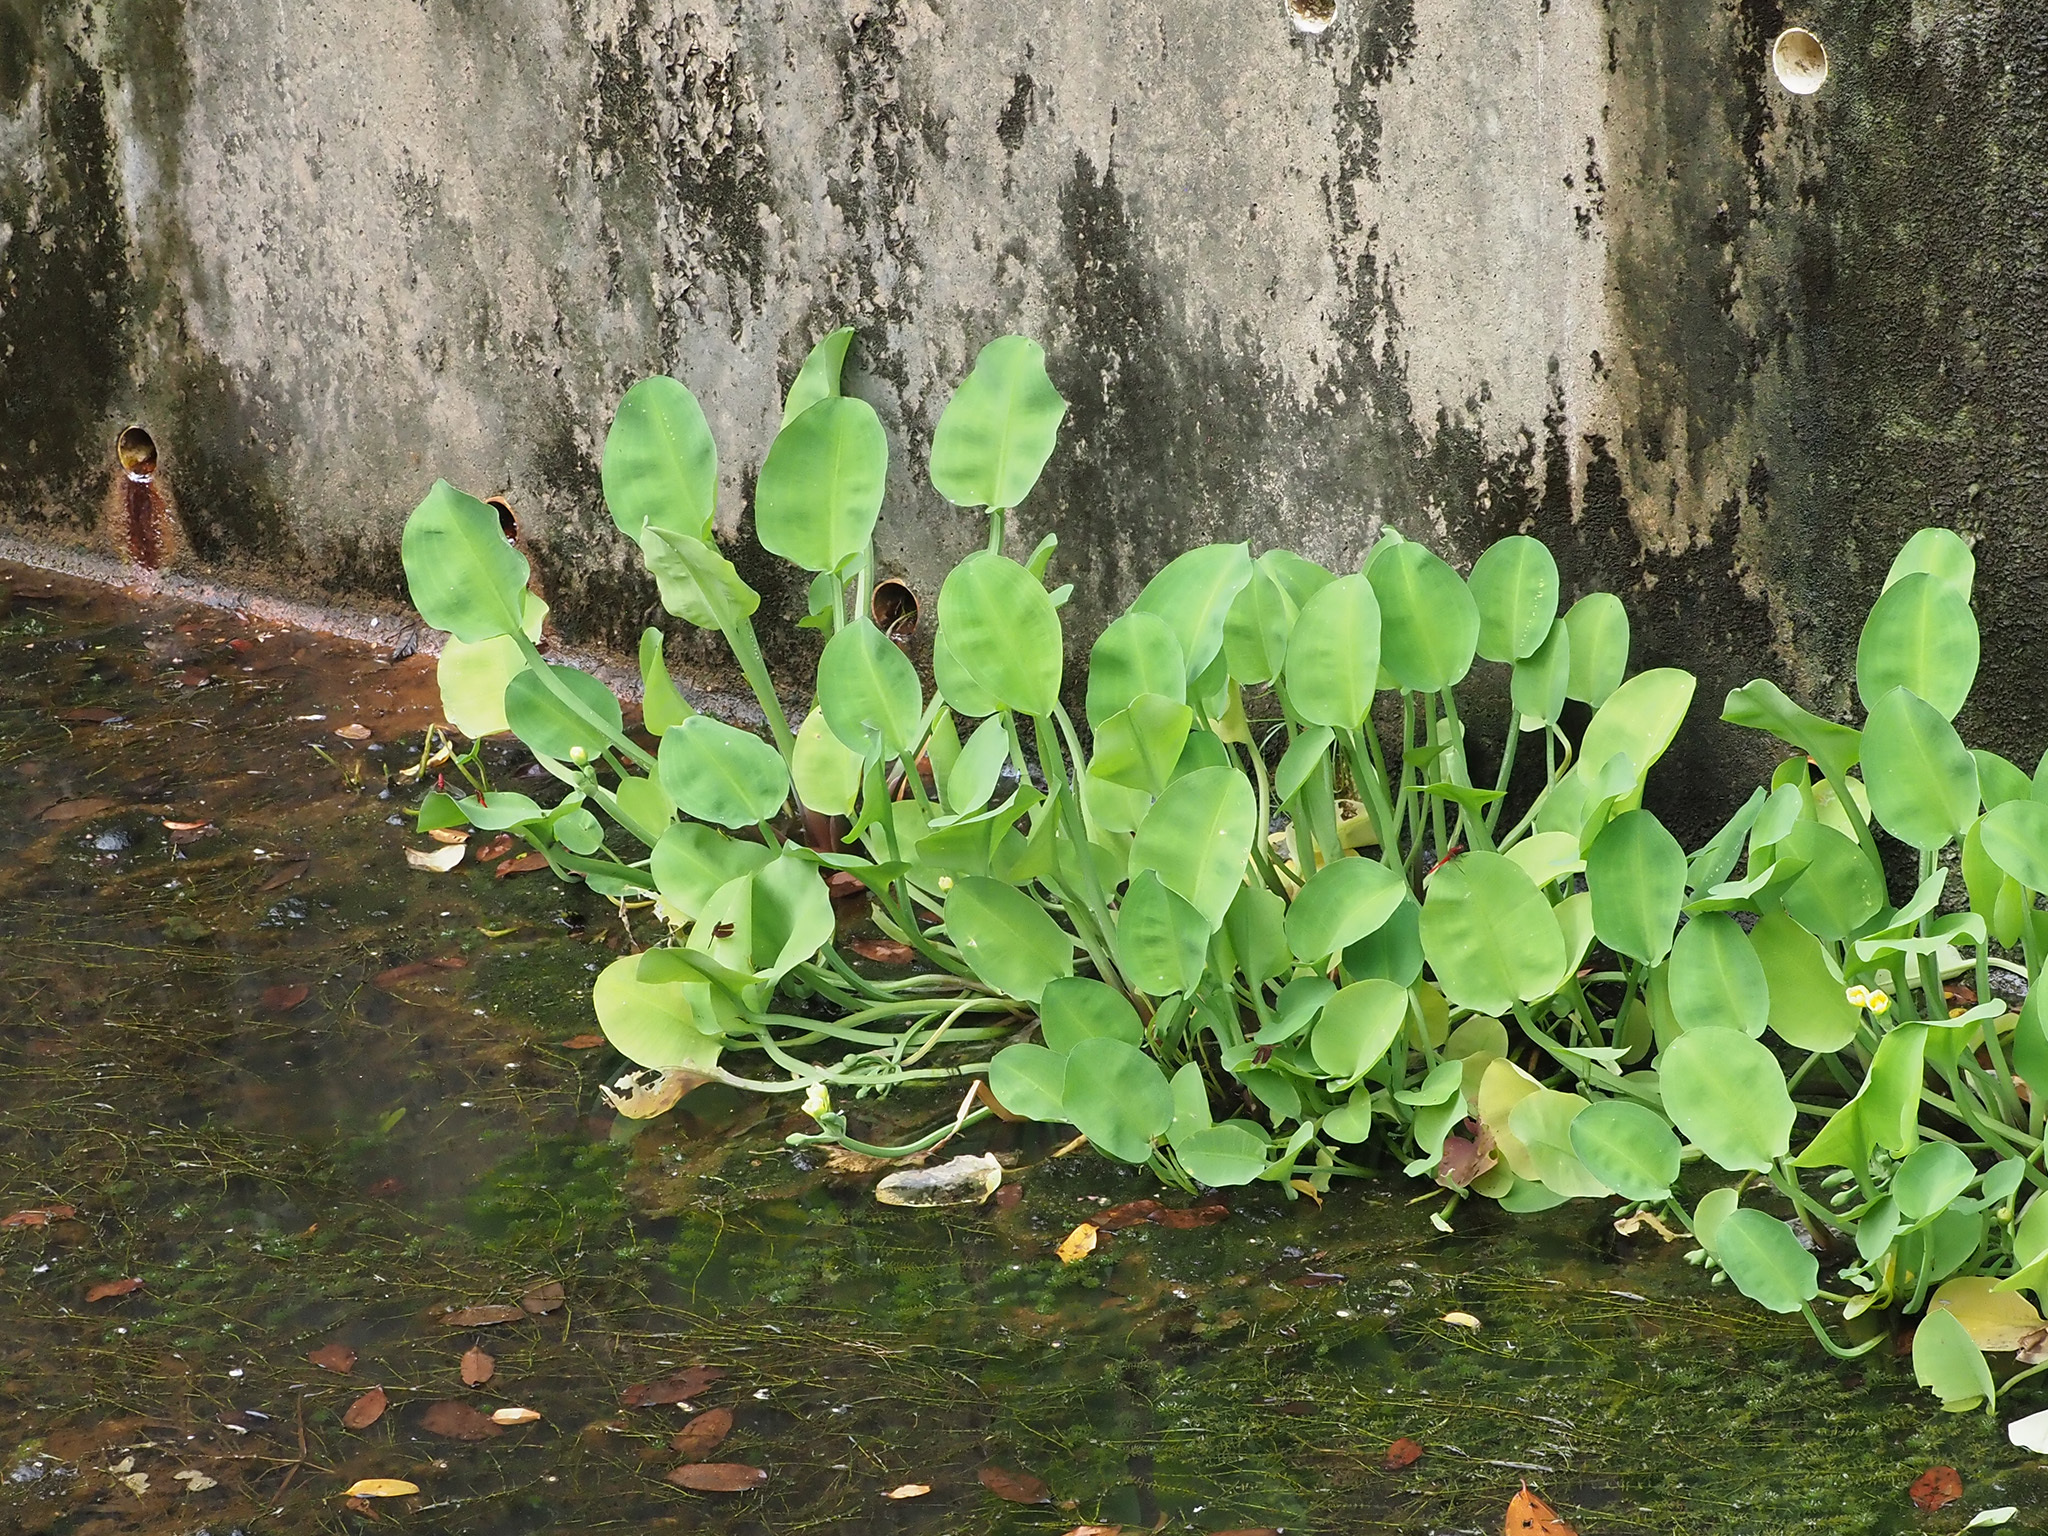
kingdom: Plantae
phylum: Tracheophyta
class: Liliopsida
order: Alismatales
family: Alismataceae
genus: Limnocharis
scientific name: Limnocharis flava
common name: Sawah-flower-rush
